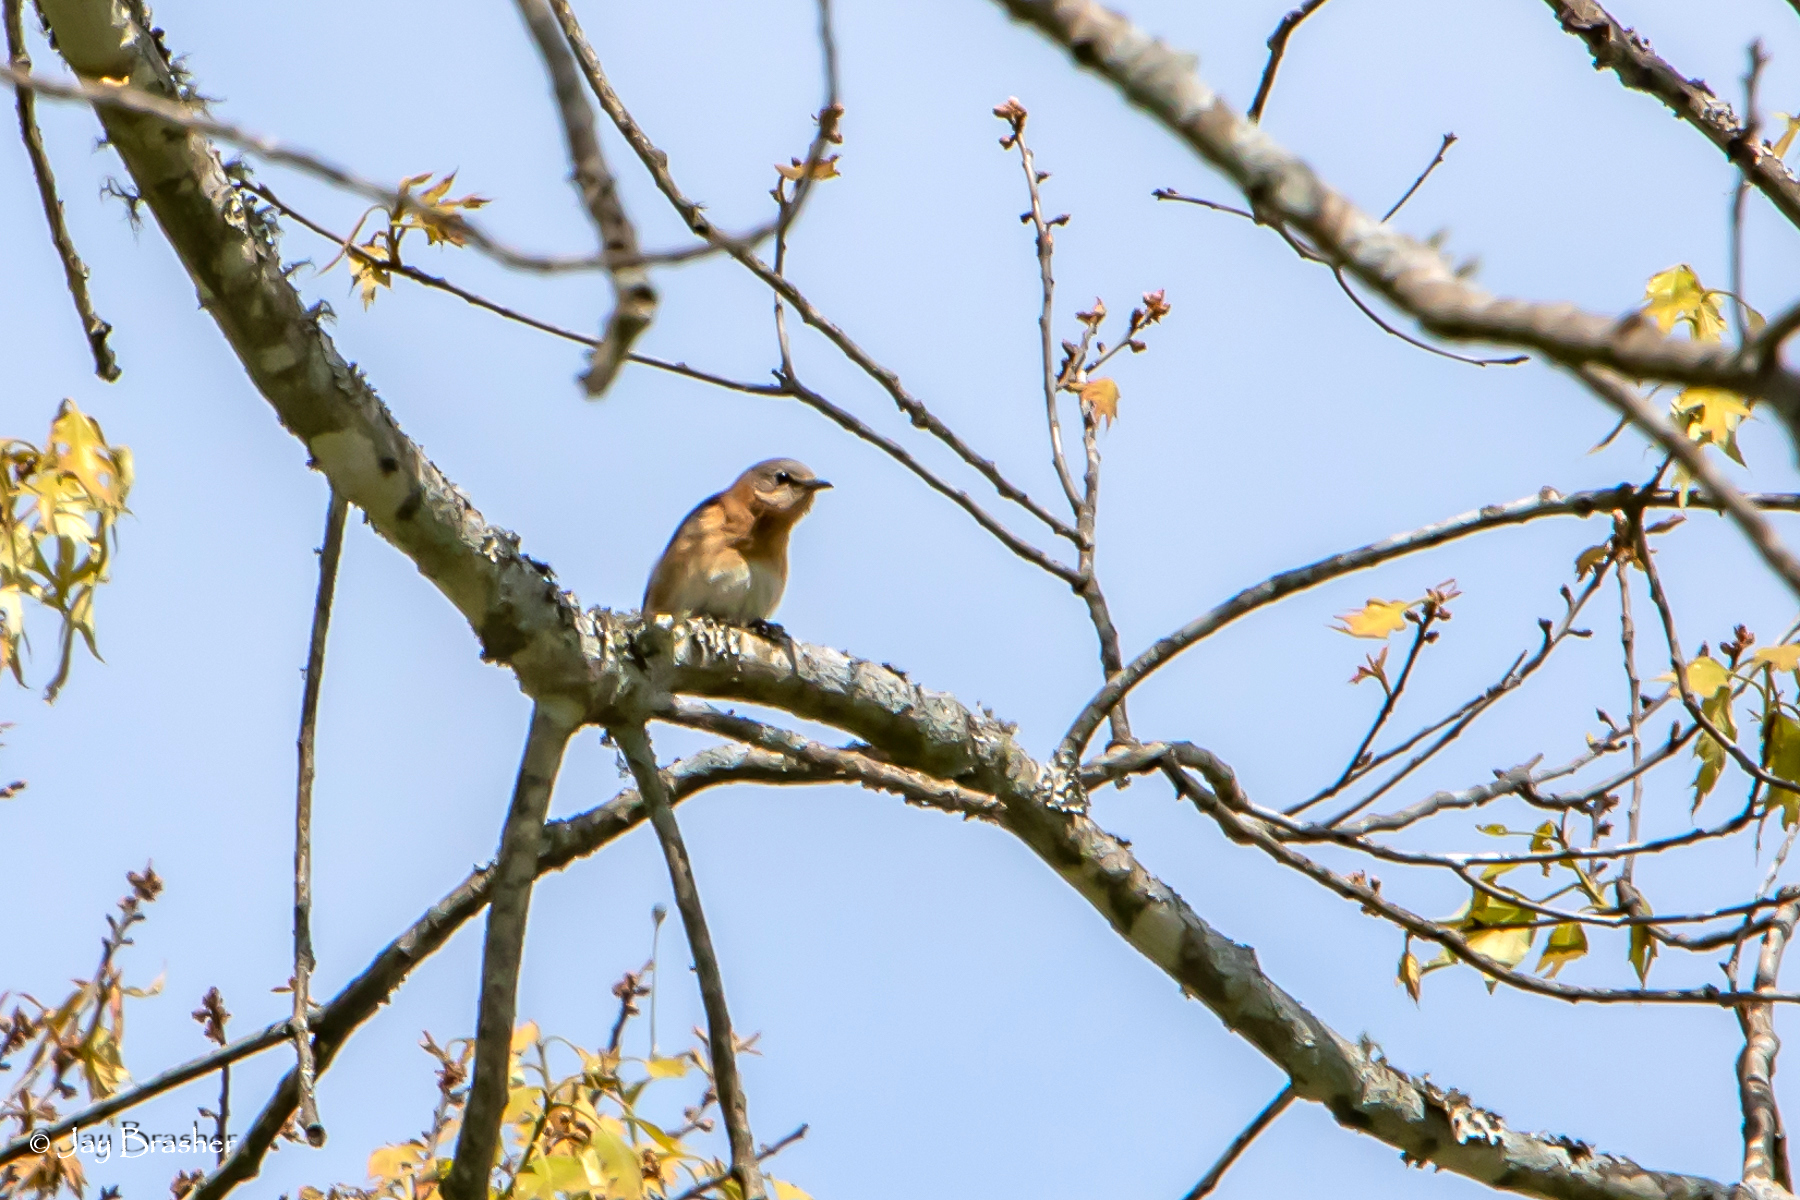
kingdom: Animalia
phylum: Chordata
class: Aves
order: Passeriformes
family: Turdidae
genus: Sialia
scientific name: Sialia sialis
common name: Eastern bluebird
